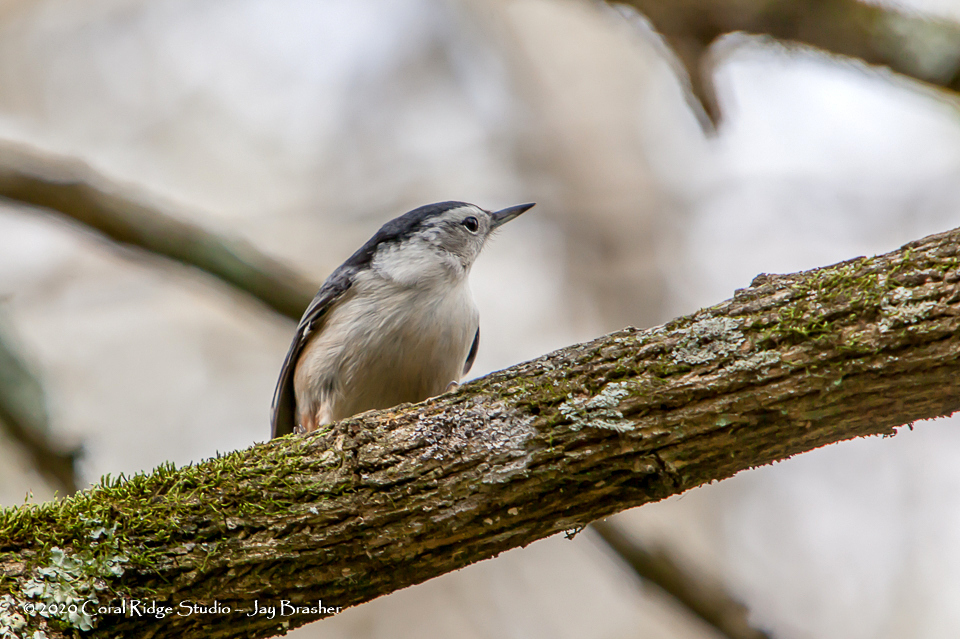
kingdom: Animalia
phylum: Chordata
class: Aves
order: Passeriformes
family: Sittidae
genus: Sitta
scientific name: Sitta carolinensis
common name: White-breasted nuthatch
